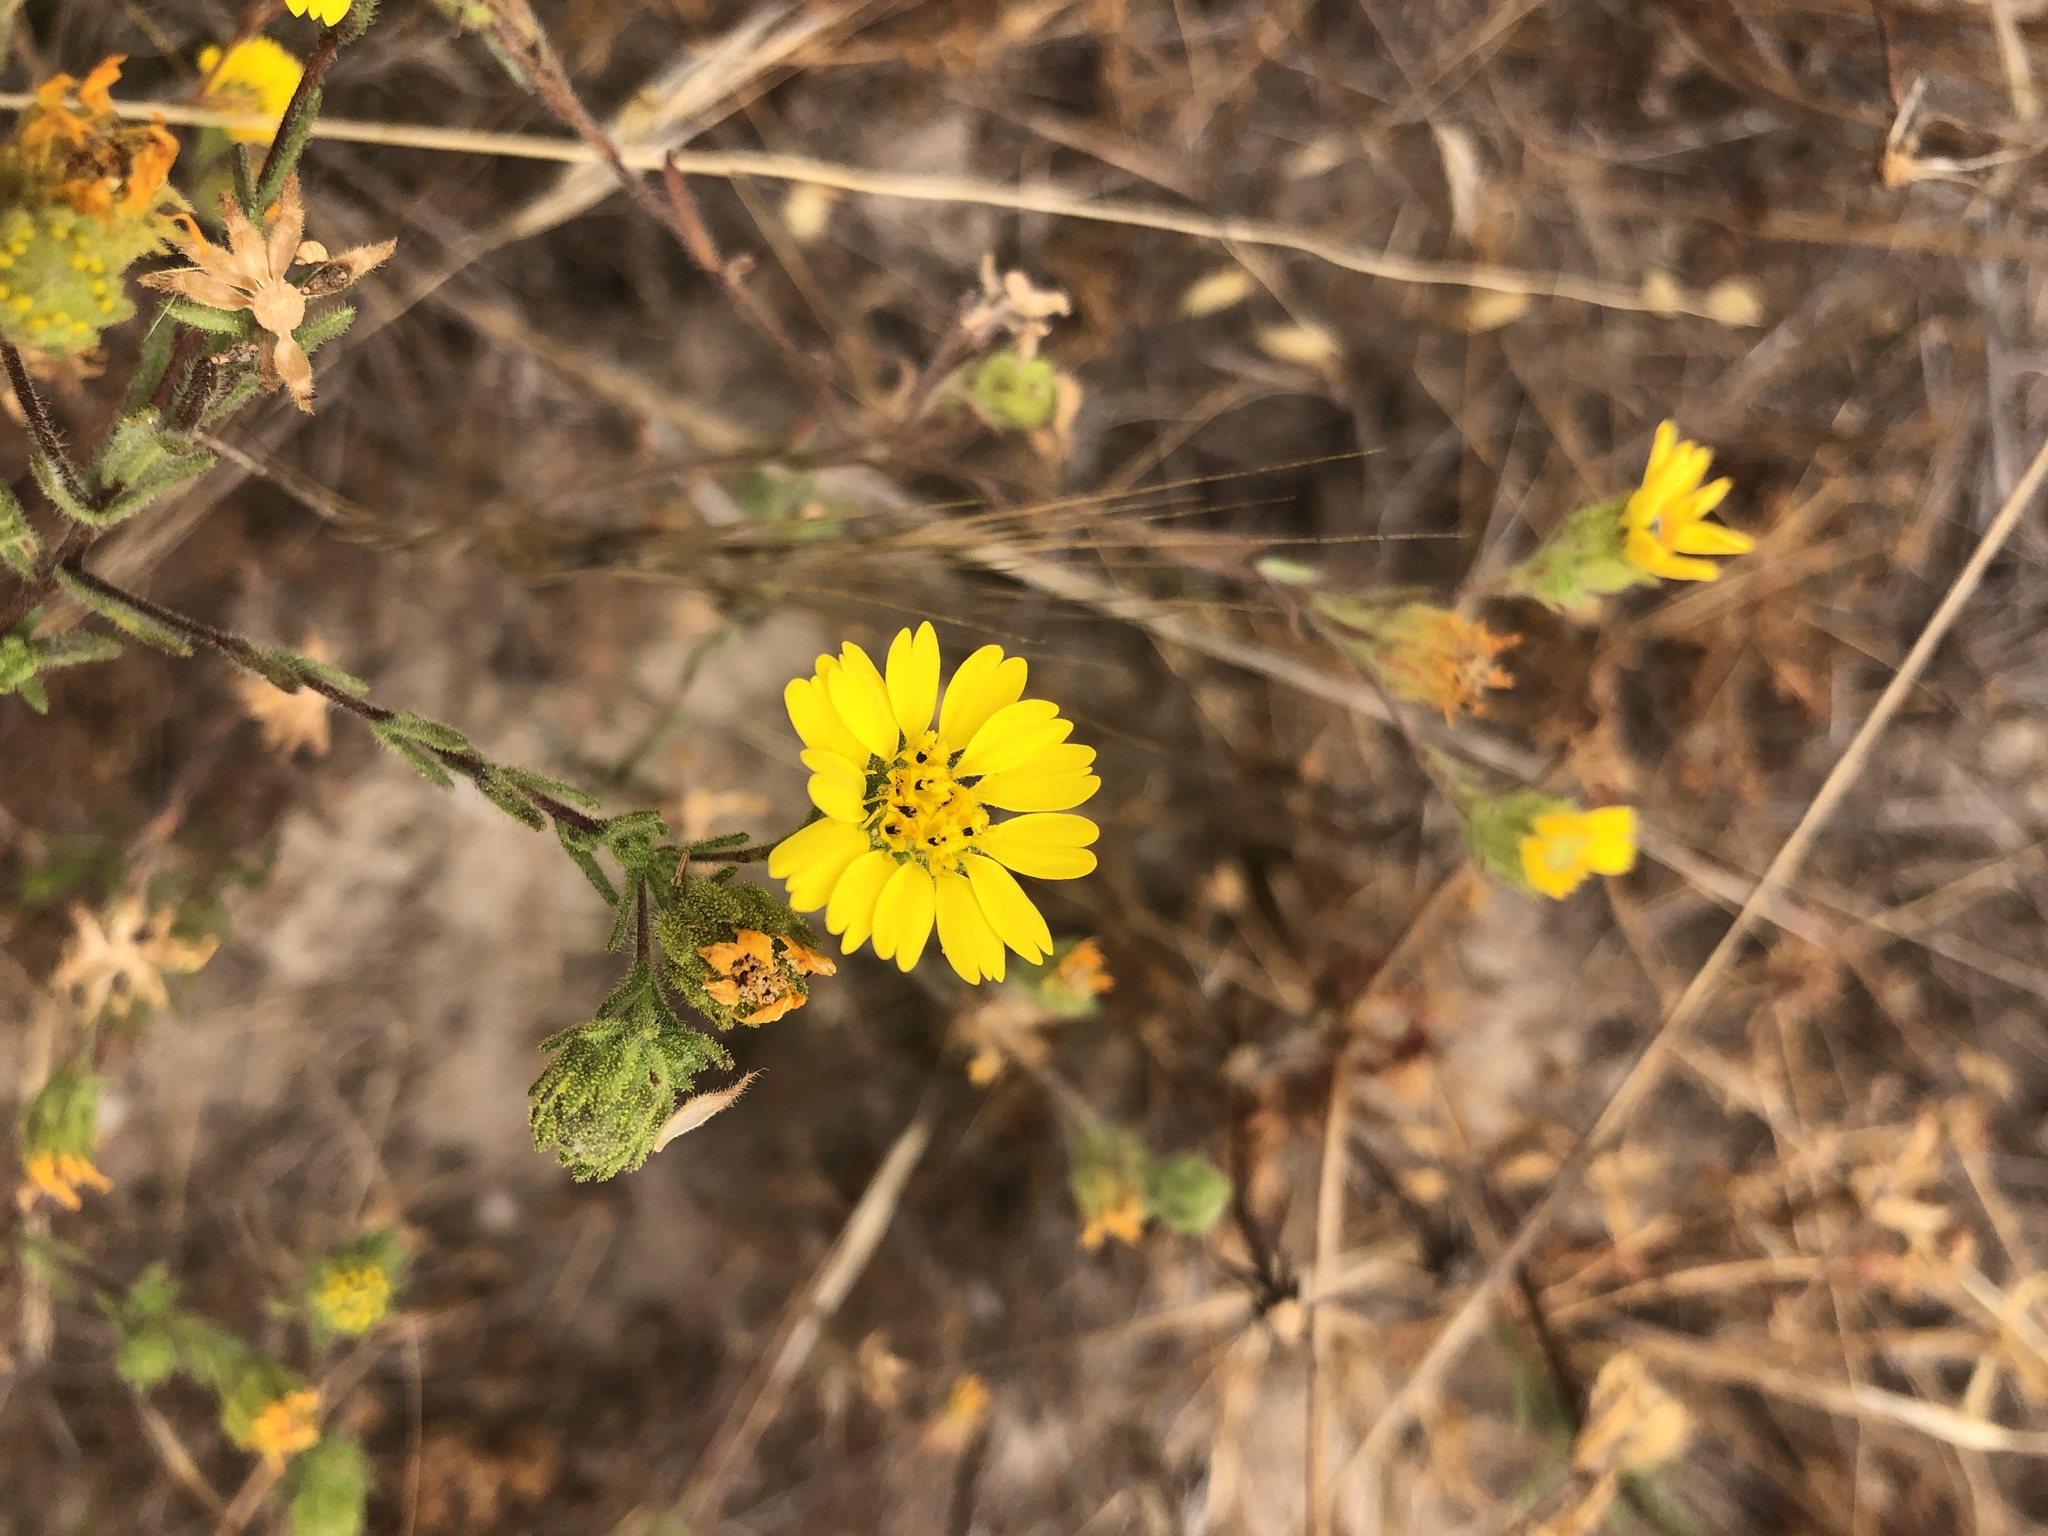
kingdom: Plantae
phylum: Tracheophyta
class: Magnoliopsida
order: Asterales
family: Asteraceae
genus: Deinandra
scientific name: Deinandra corymbosa
